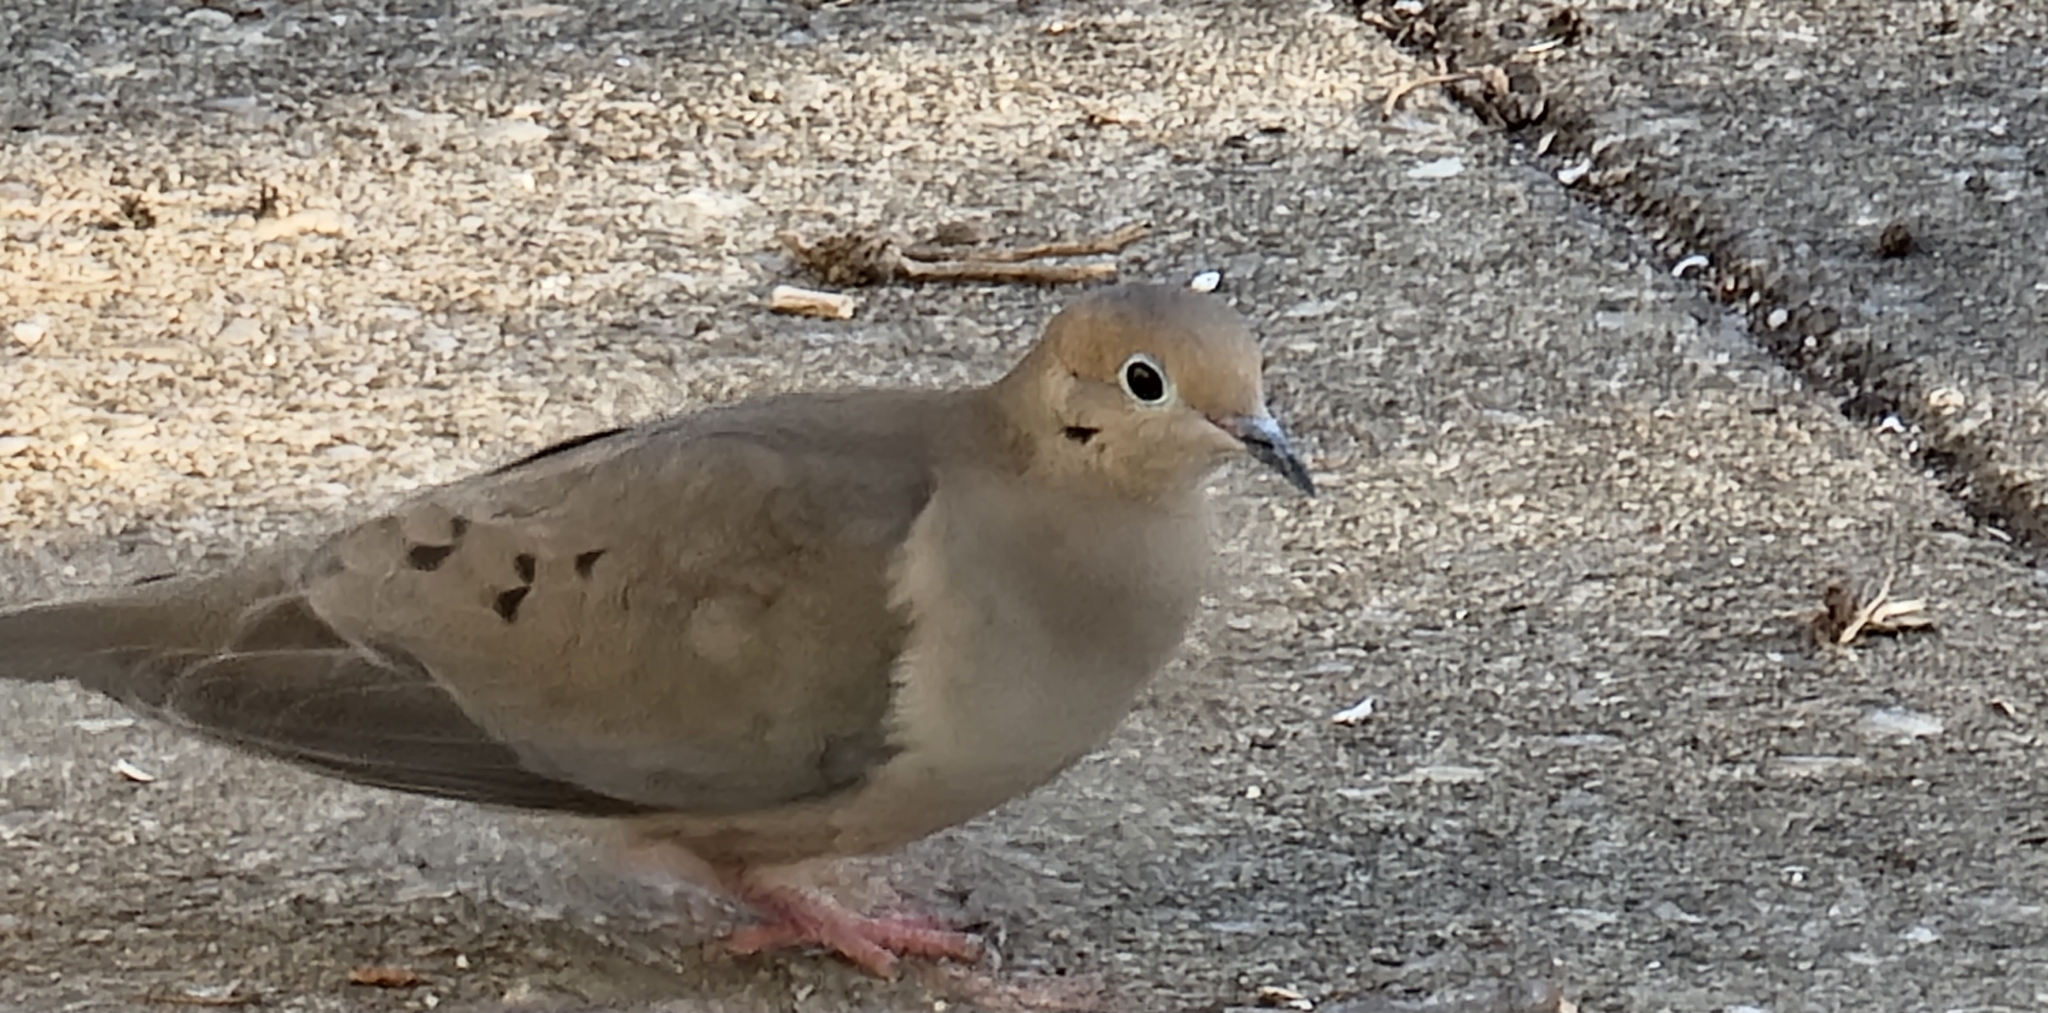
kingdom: Animalia
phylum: Chordata
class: Aves
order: Columbiformes
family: Columbidae
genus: Zenaida
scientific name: Zenaida macroura
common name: Mourning dove
